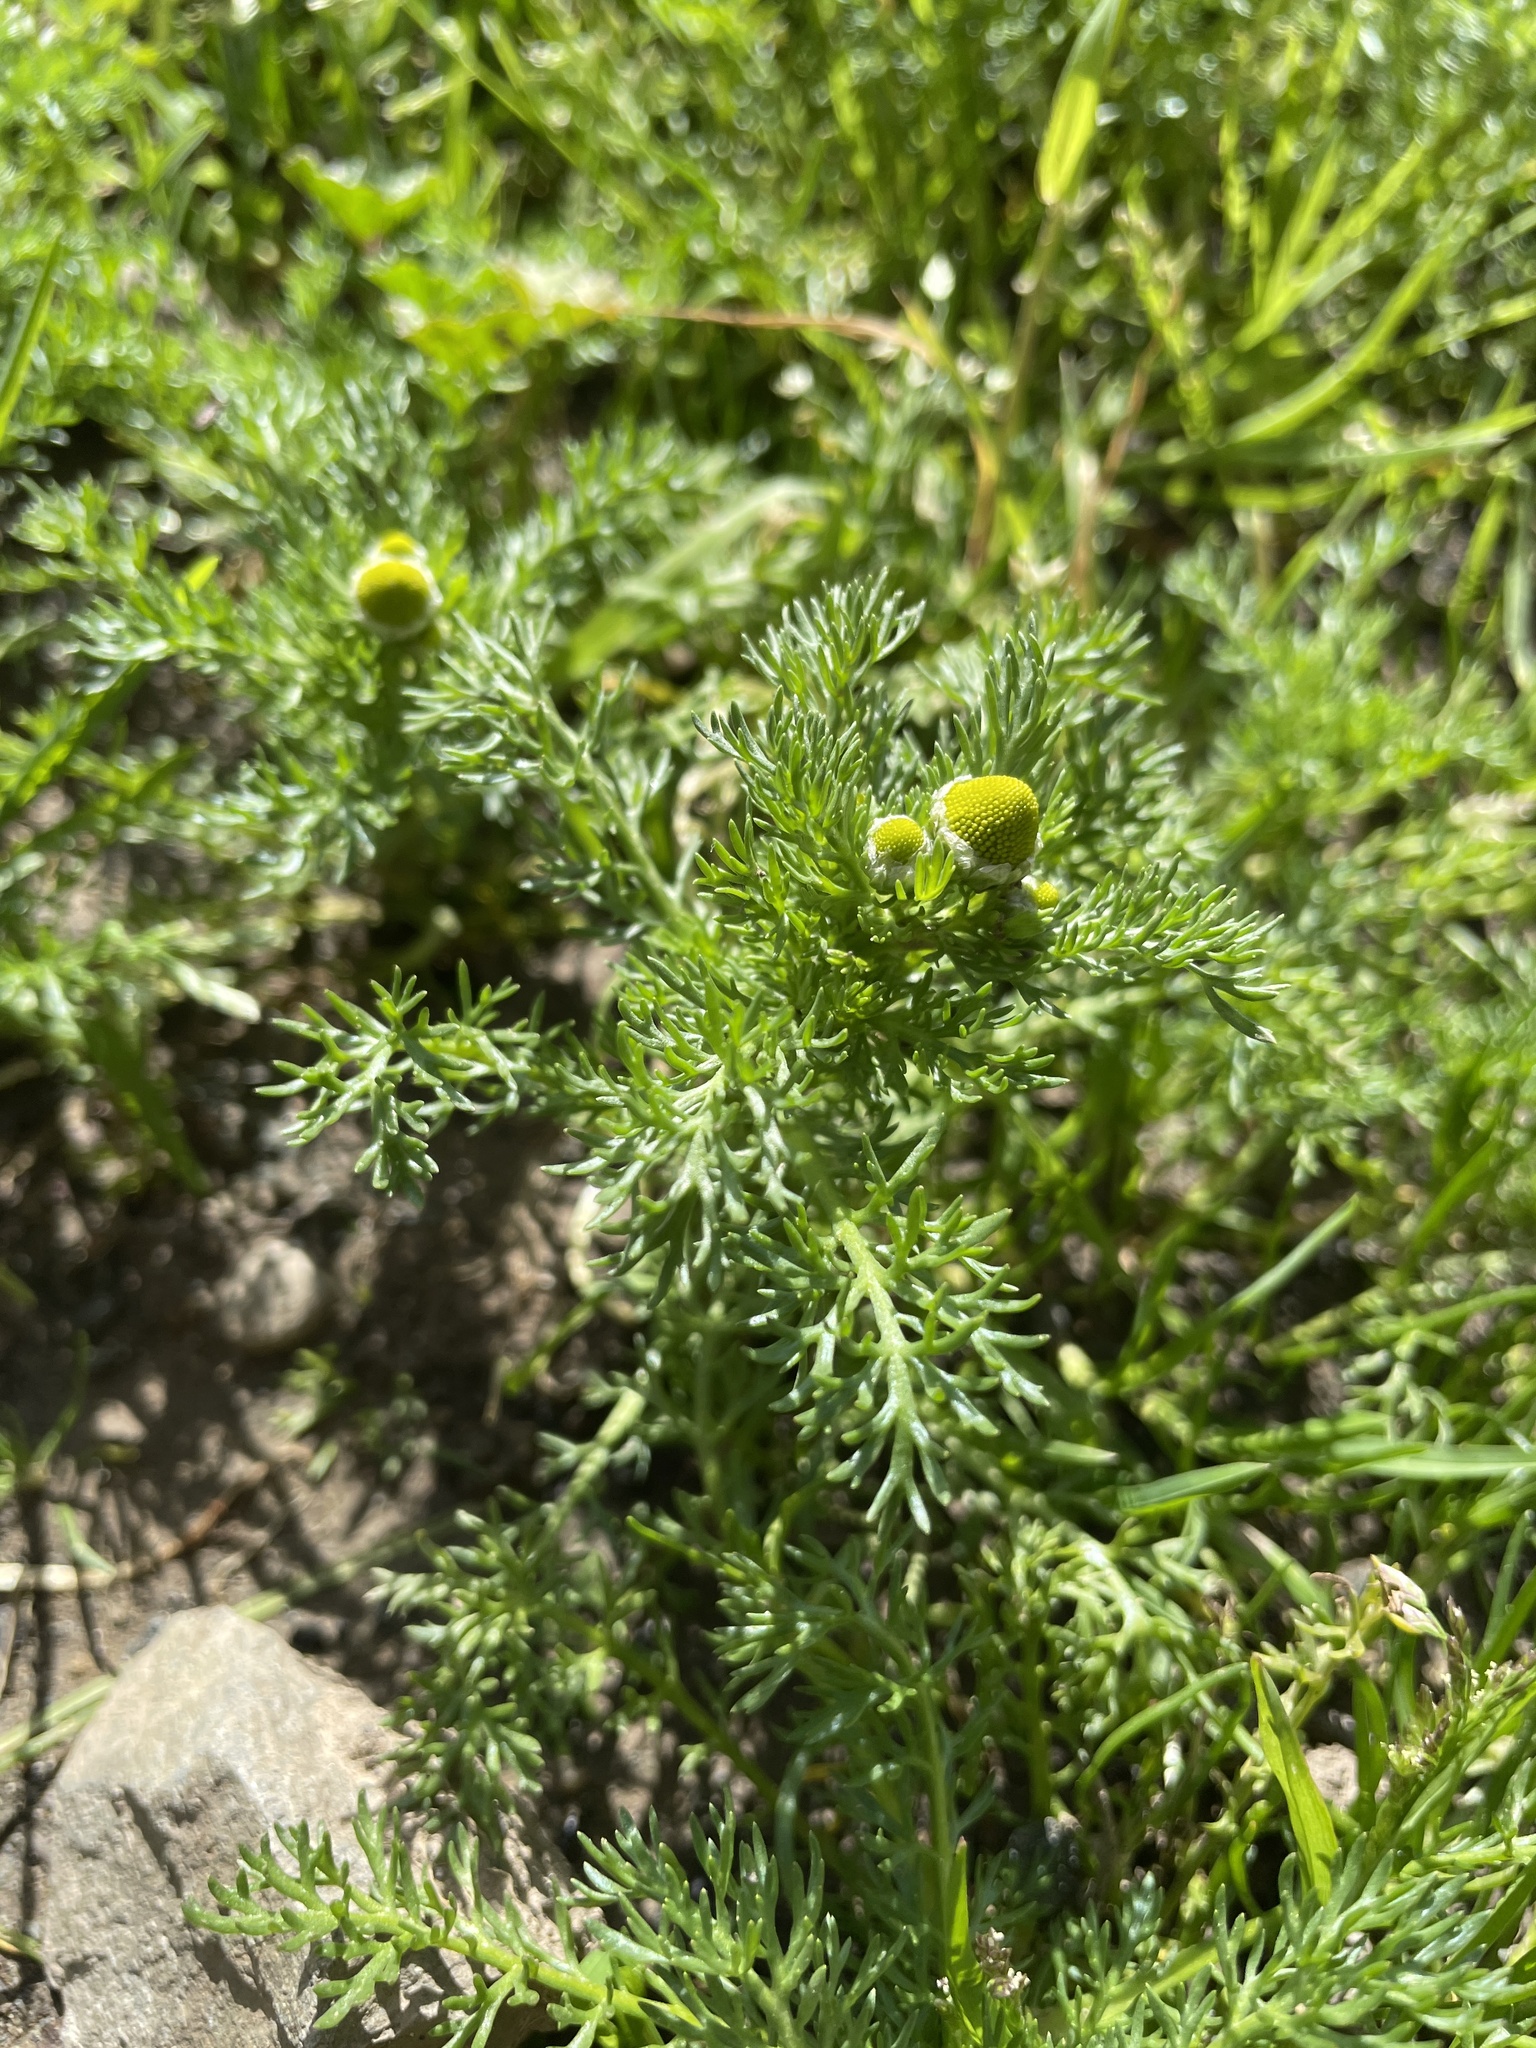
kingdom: Plantae
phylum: Tracheophyta
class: Magnoliopsida
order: Asterales
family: Asteraceae
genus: Matricaria
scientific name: Matricaria discoidea
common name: Disc mayweed
